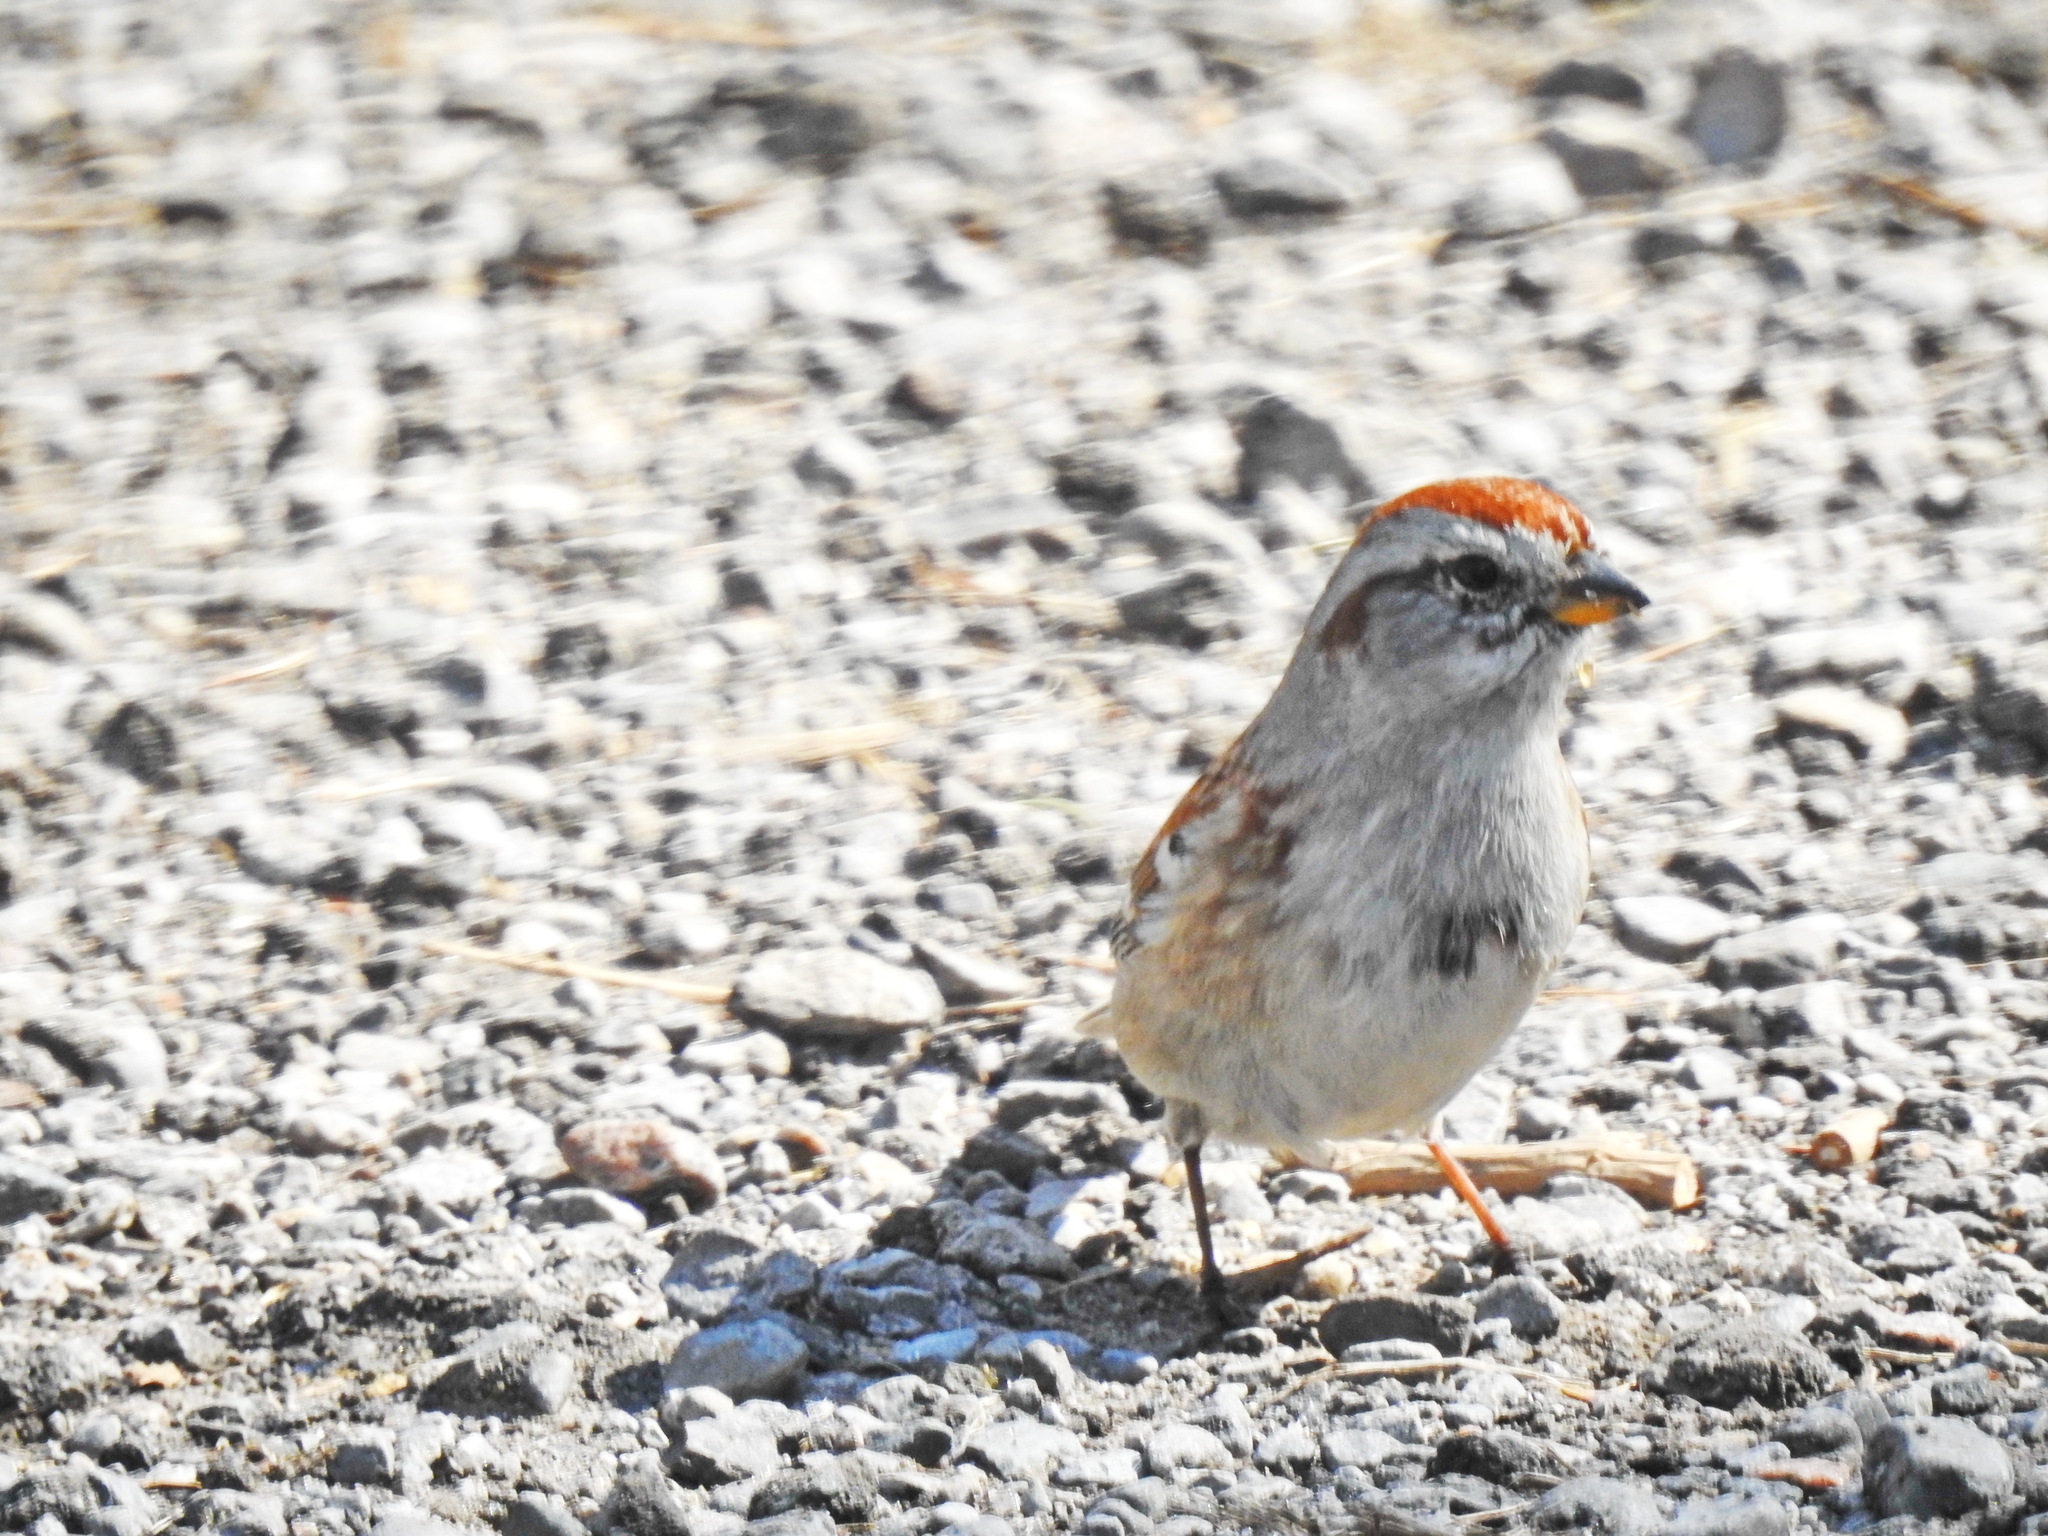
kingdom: Animalia
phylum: Chordata
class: Aves
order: Passeriformes
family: Passerellidae
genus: Spizelloides
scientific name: Spizelloides arborea
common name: American tree sparrow
